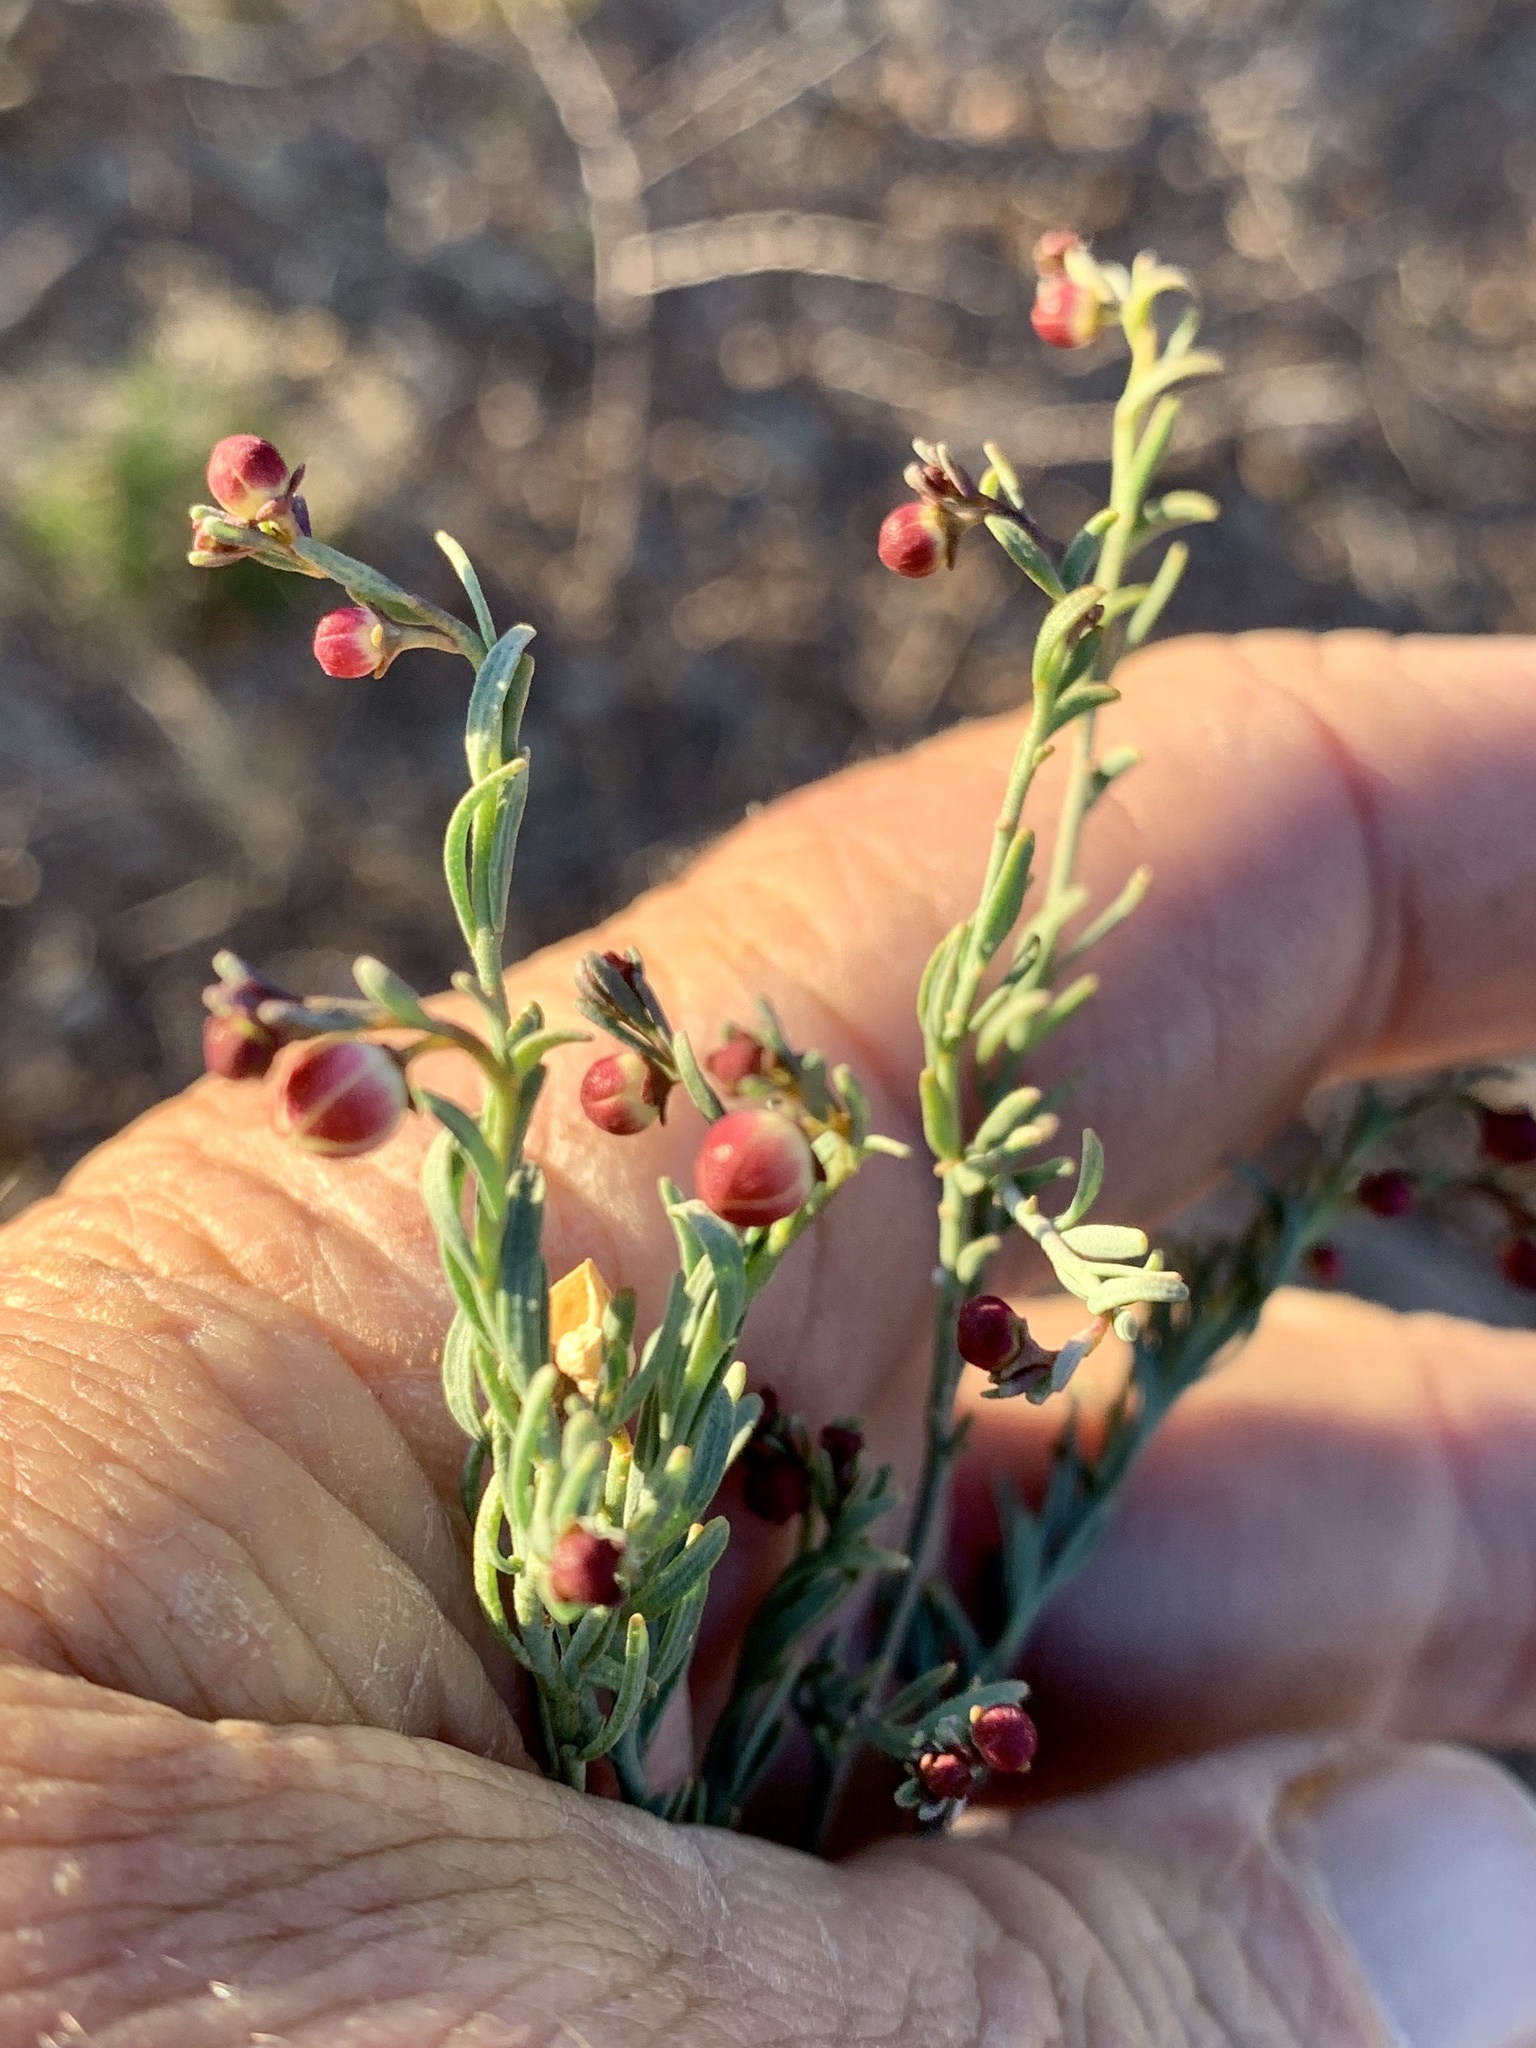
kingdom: Plantae
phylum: Tracheophyta
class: Magnoliopsida
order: Sapindales
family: Rutaceae
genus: Thamnosma
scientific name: Thamnosma texana
